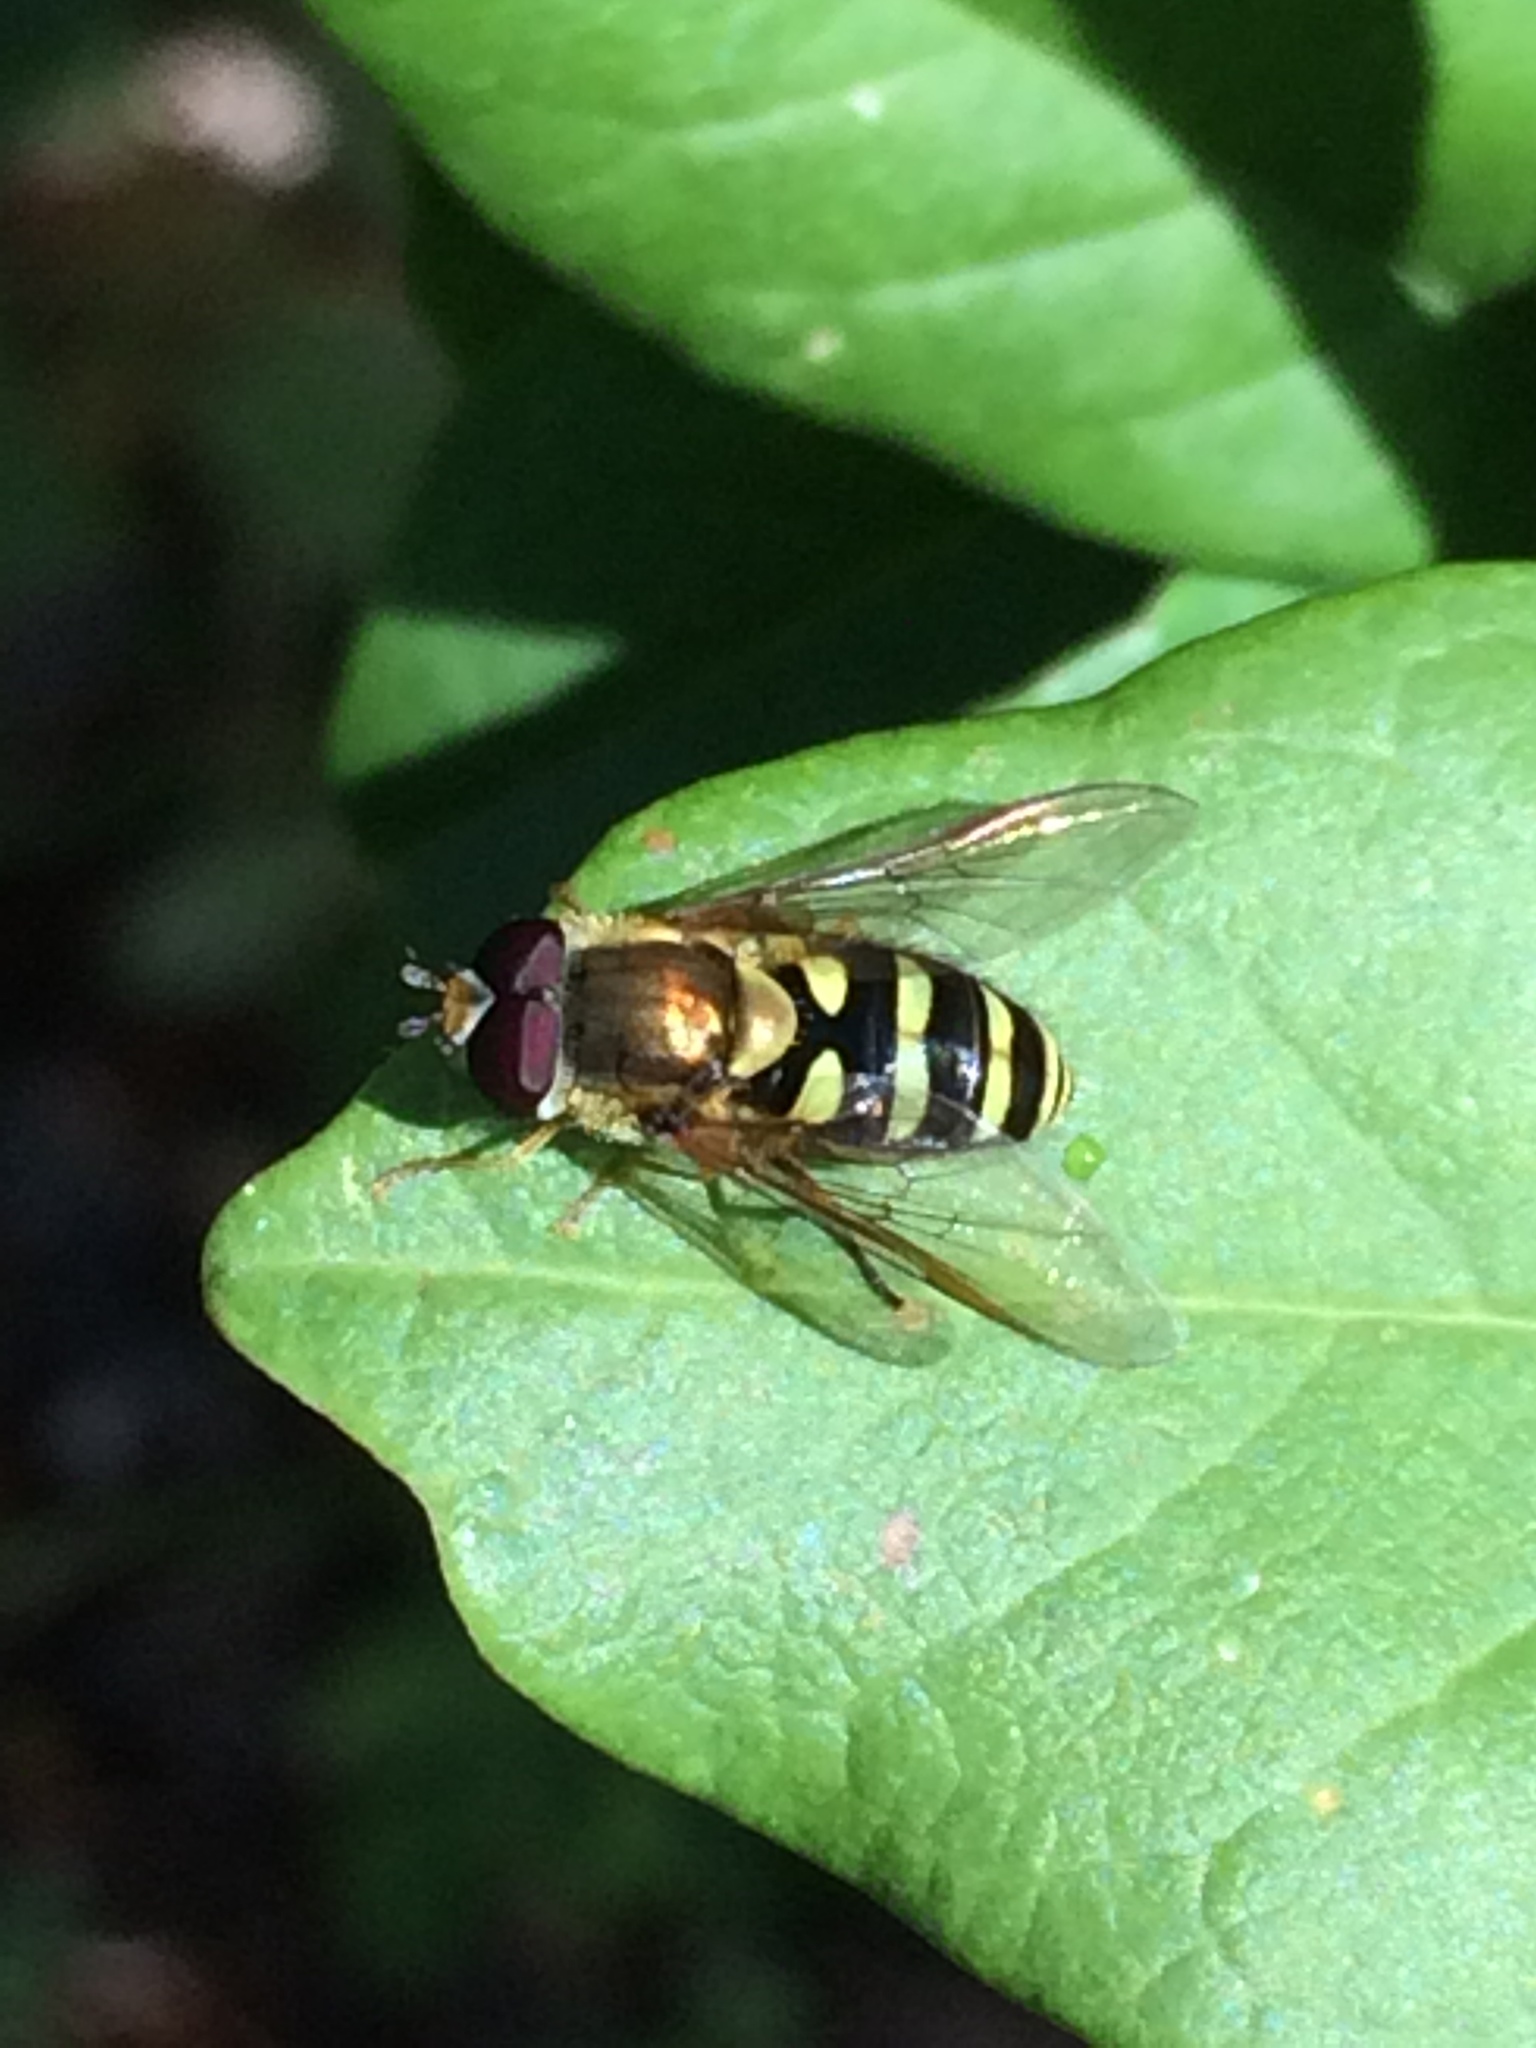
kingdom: Animalia
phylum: Arthropoda
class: Insecta
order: Diptera
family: Syrphidae
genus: Syrphus
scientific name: Syrphus opinator
